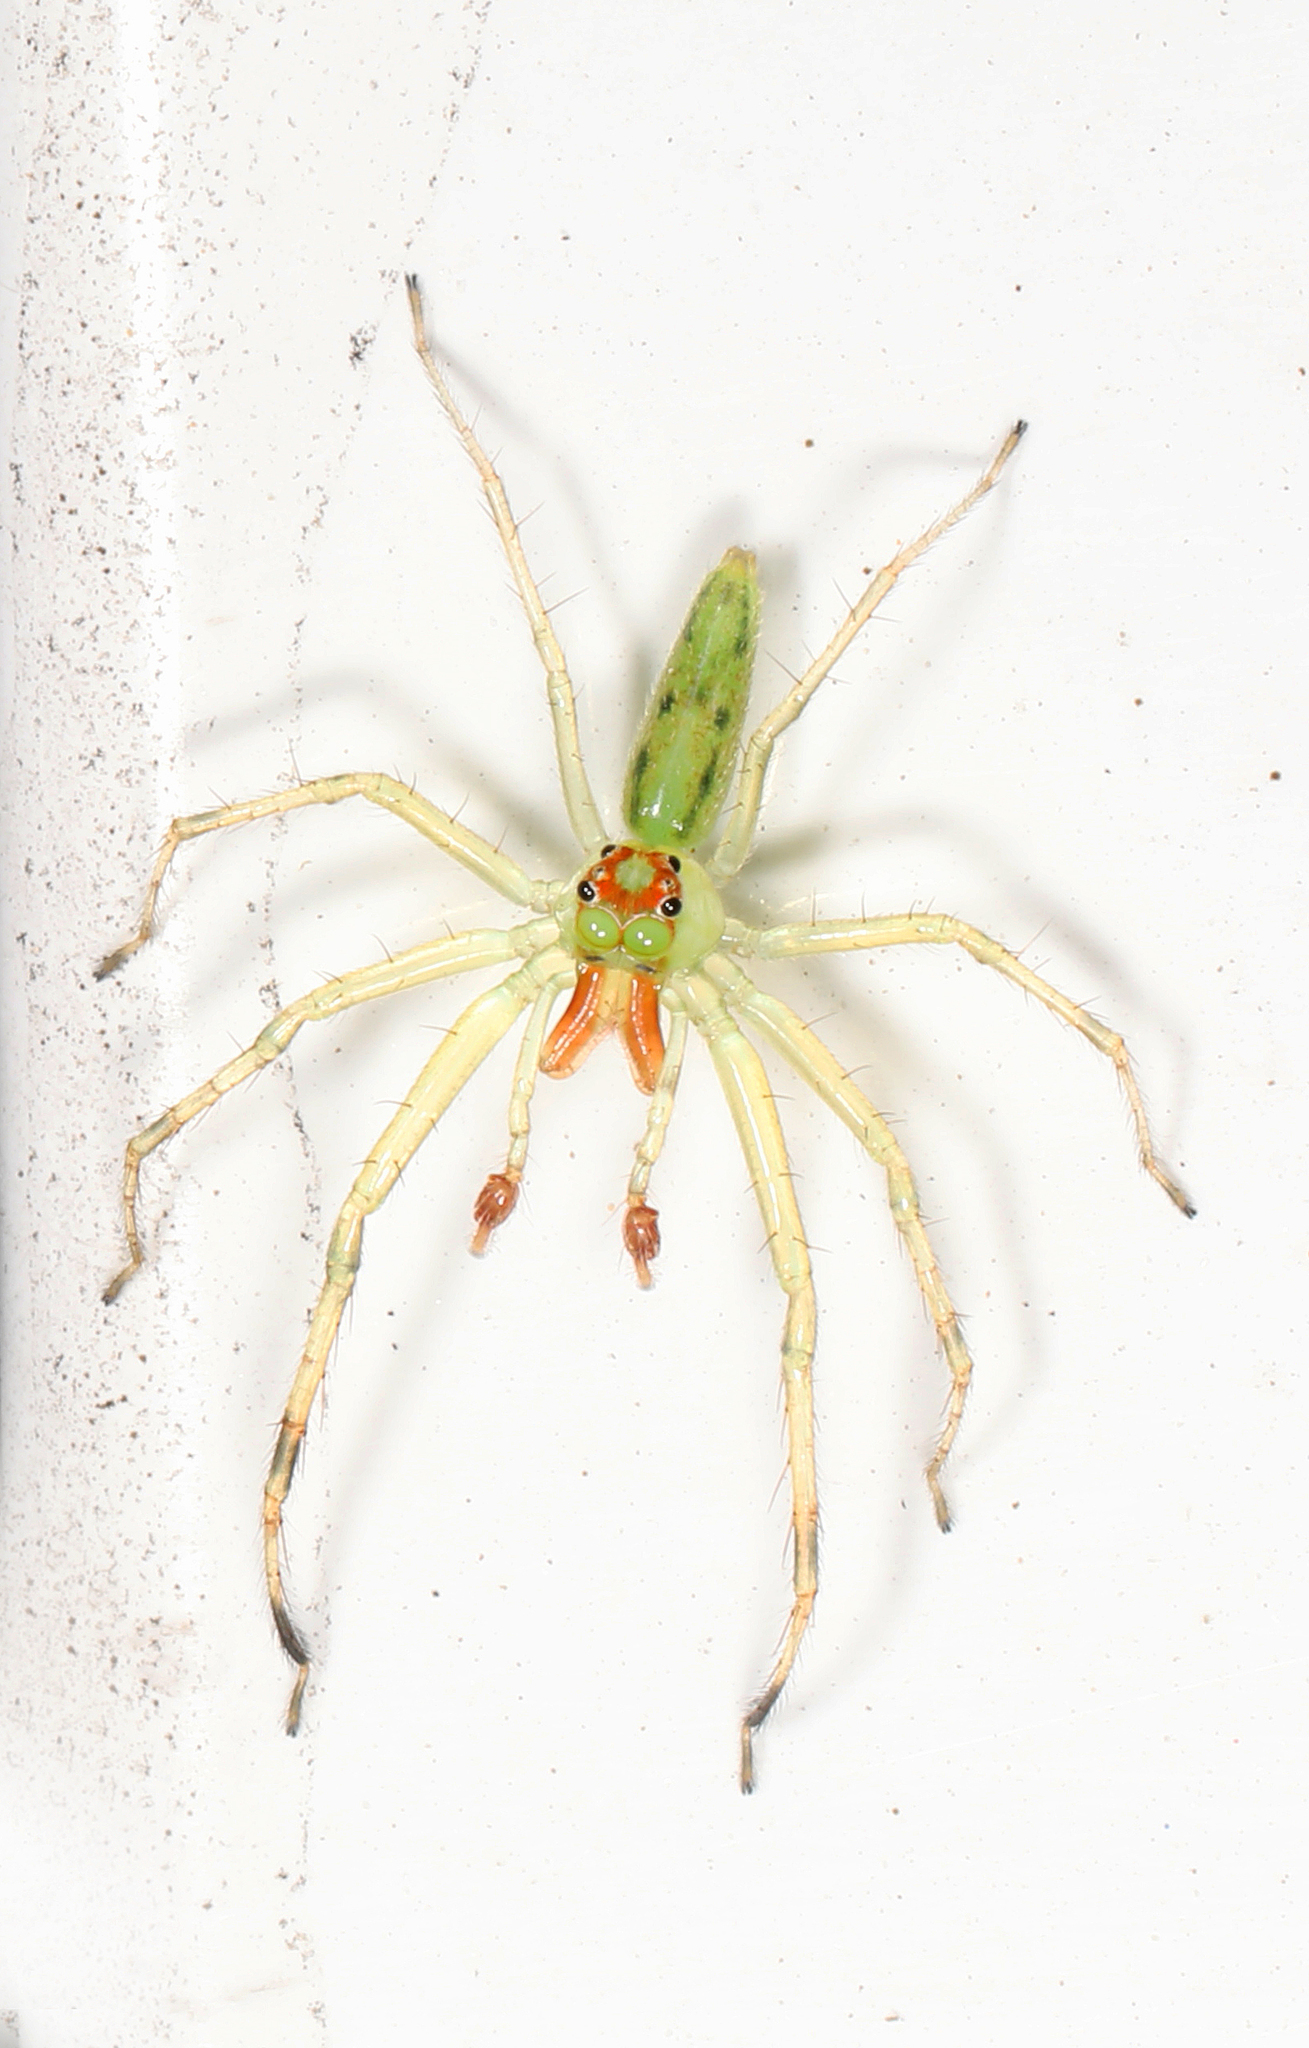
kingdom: Animalia
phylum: Arthropoda
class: Arachnida
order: Araneae
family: Salticidae
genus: Lyssomanes
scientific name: Lyssomanes viridis
